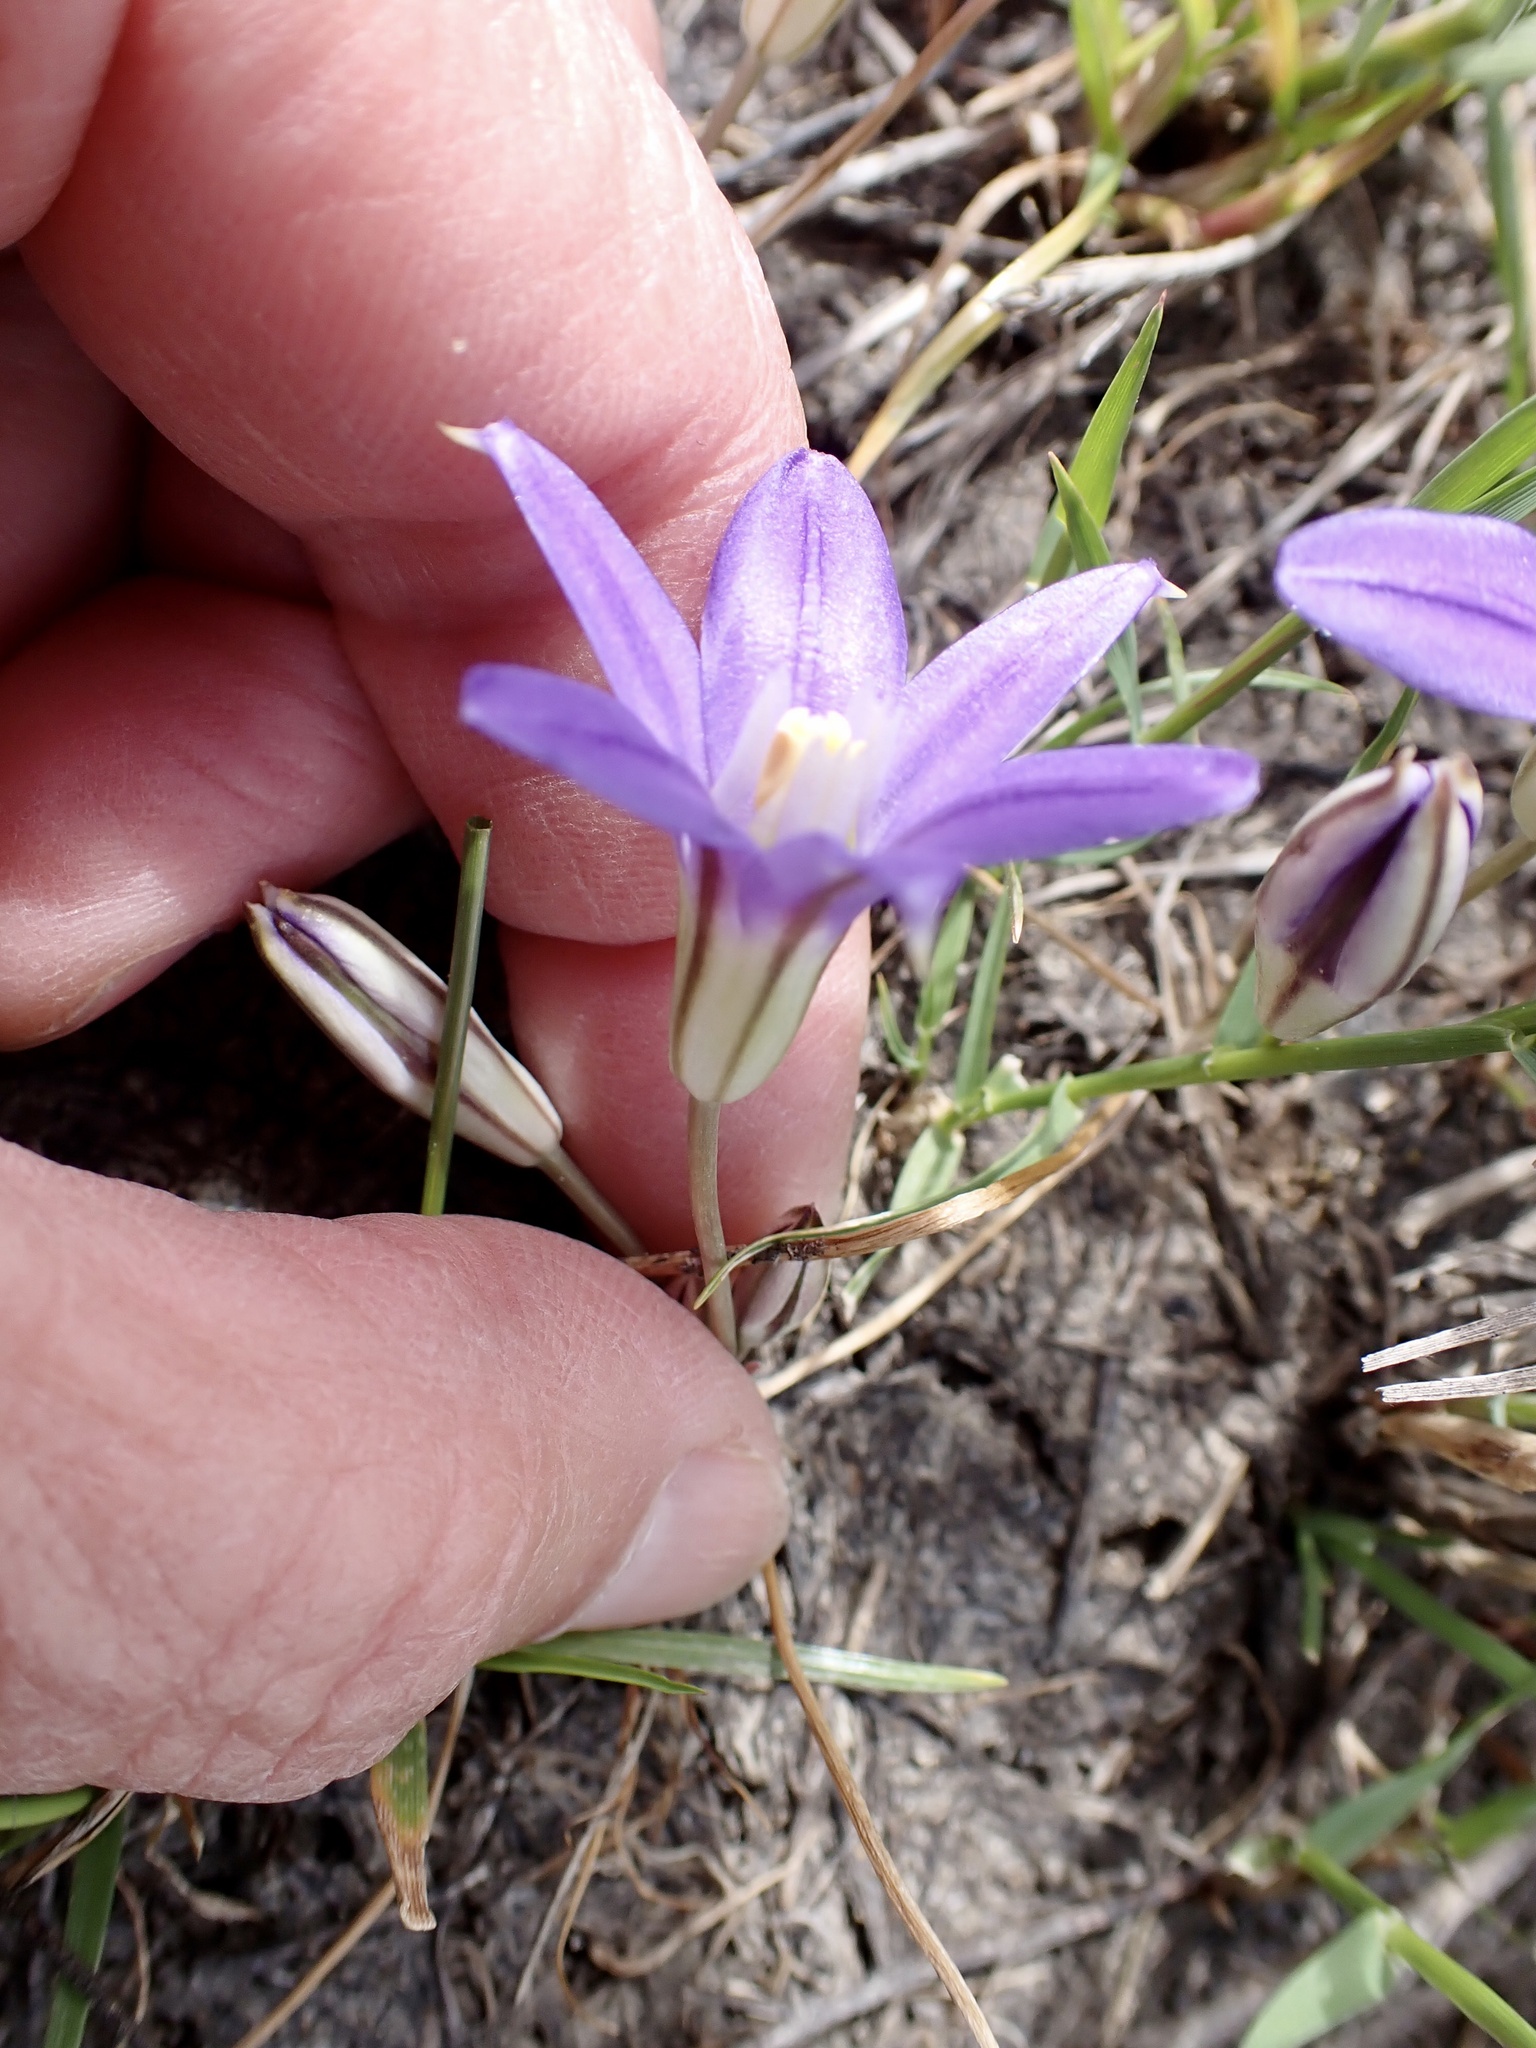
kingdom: Plantae
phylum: Tracheophyta
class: Liliopsida
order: Asparagales
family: Asparagaceae
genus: Brodiaea
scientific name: Brodiaea terrestris
